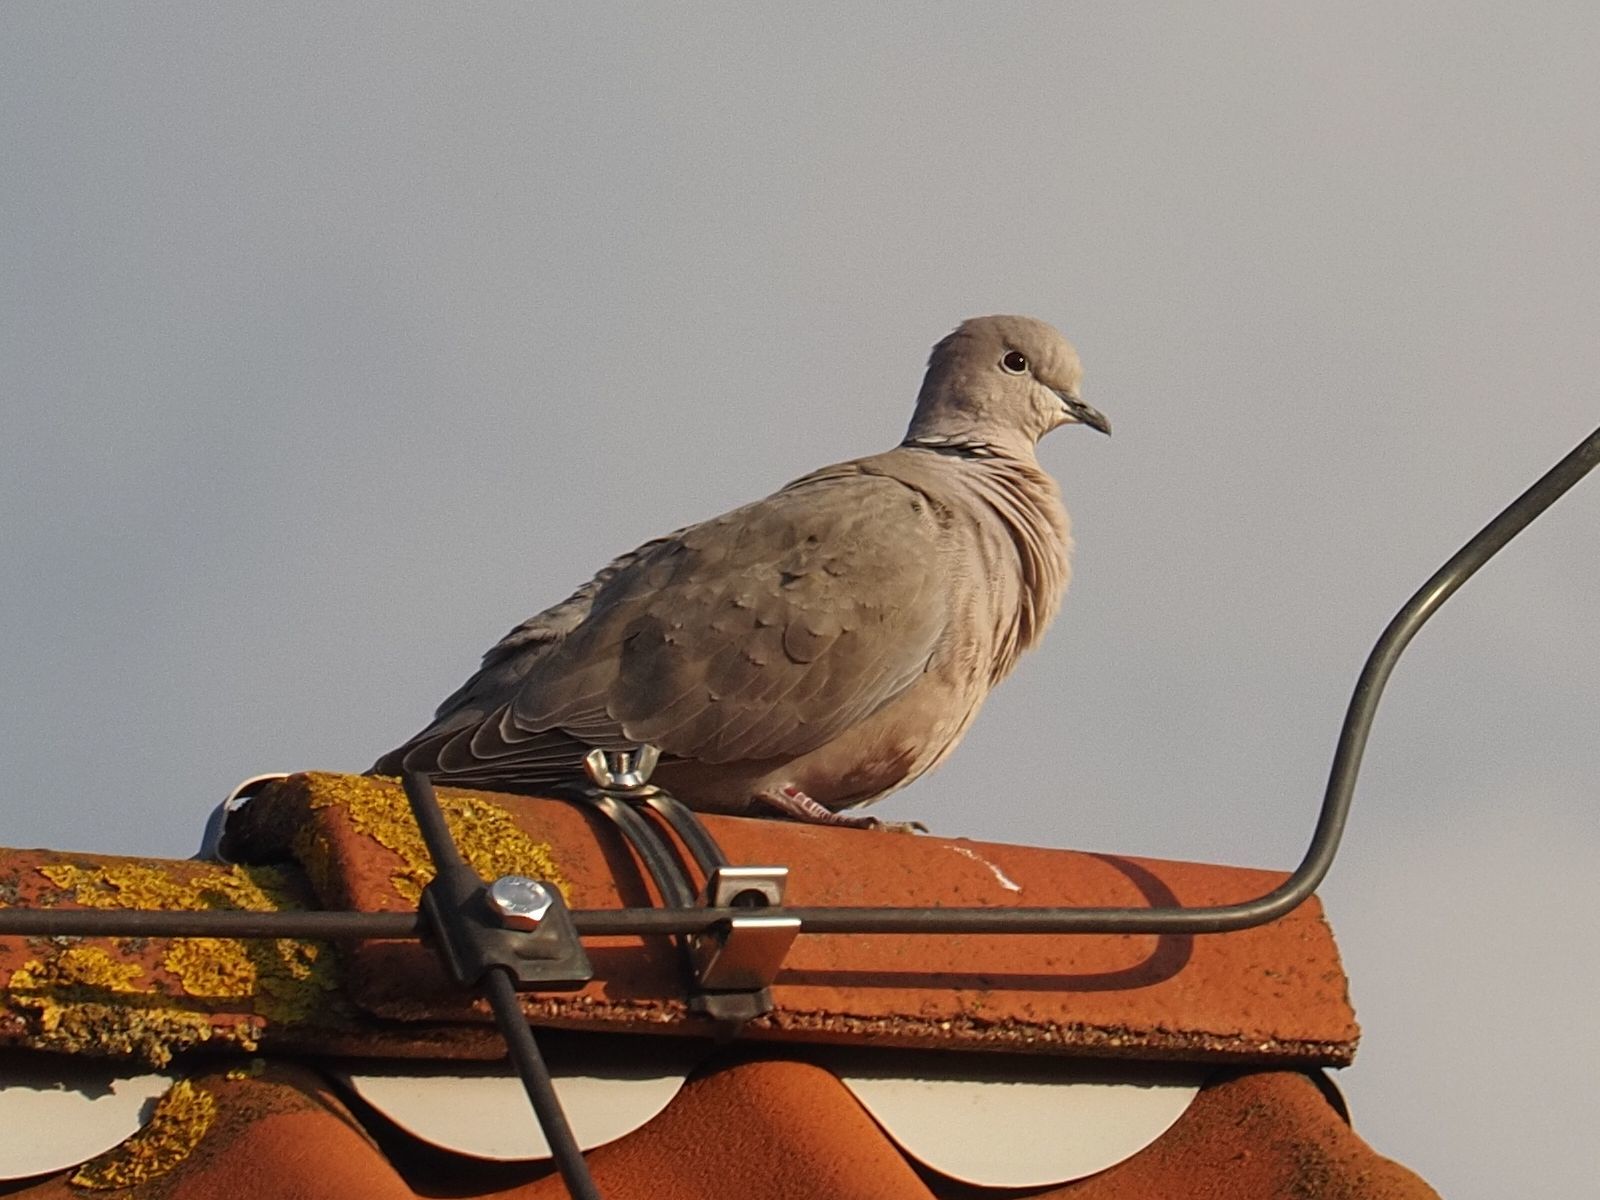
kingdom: Animalia
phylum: Chordata
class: Aves
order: Columbiformes
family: Columbidae
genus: Streptopelia
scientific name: Streptopelia decaocto
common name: Eurasian collared dove
